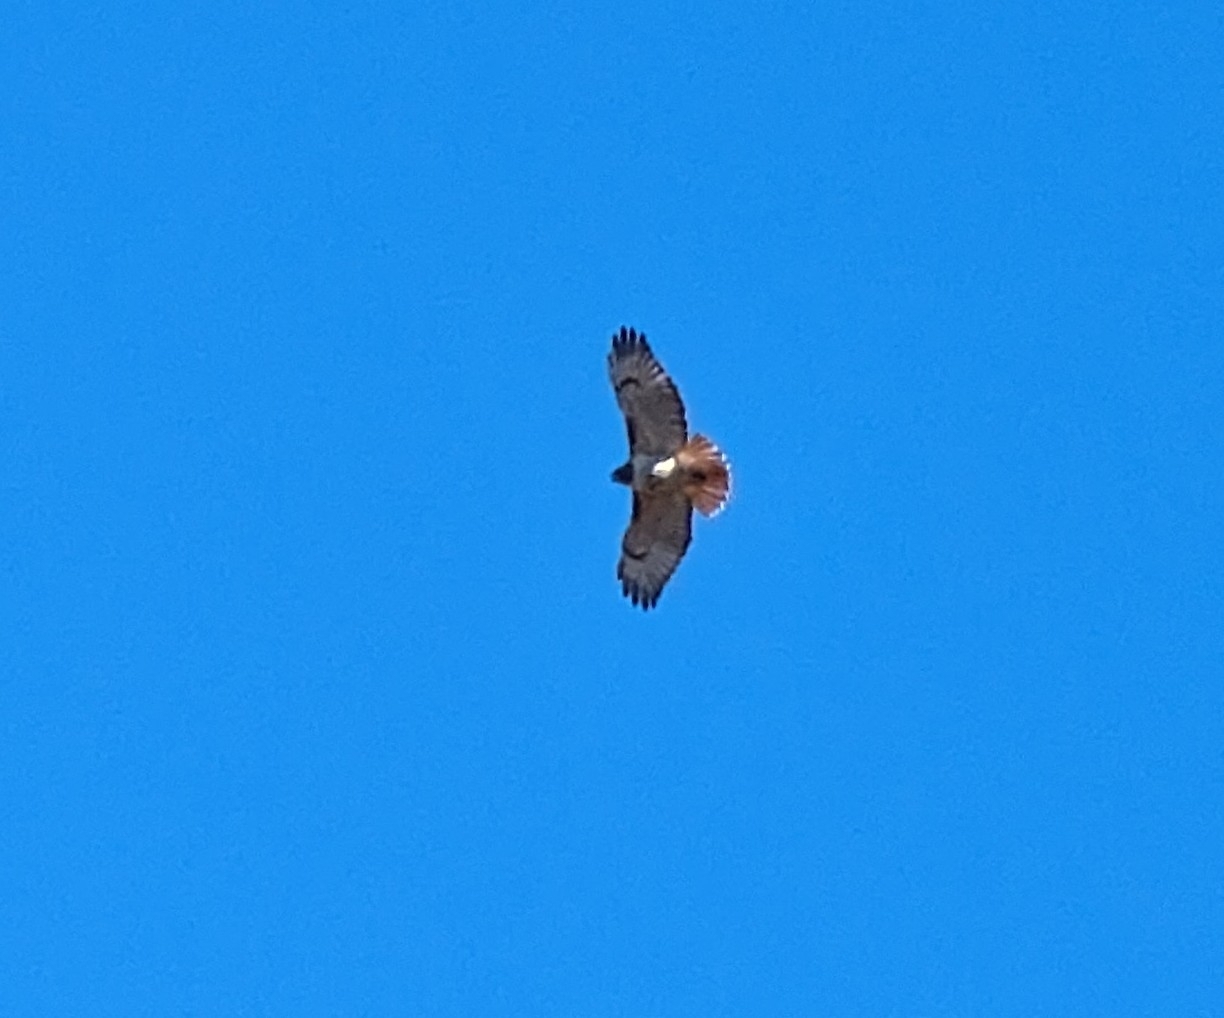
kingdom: Animalia
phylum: Chordata
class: Aves
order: Accipitriformes
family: Accipitridae
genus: Buteo
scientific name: Buteo jamaicensis
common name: Red-tailed hawk
